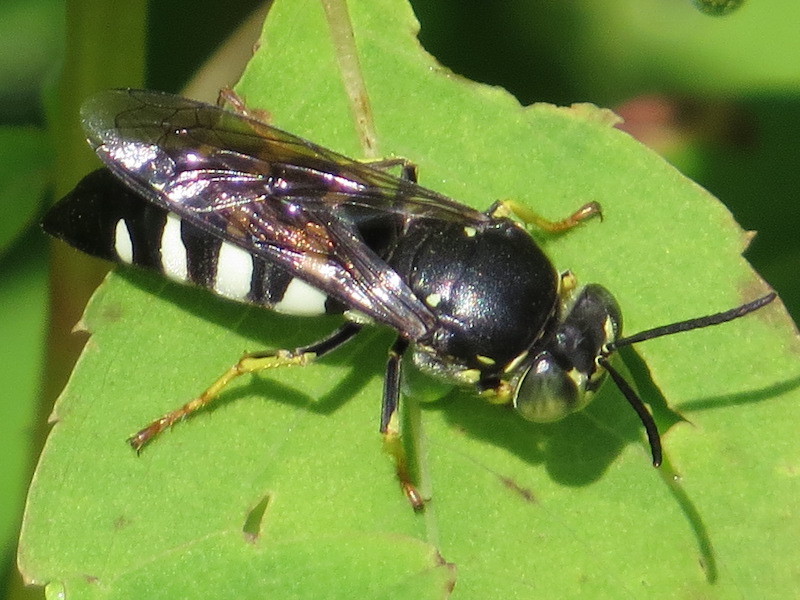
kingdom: Animalia
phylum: Arthropoda
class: Insecta
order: Hymenoptera
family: Crabronidae
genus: Bicyrtes
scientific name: Bicyrtes quadrifasciatus
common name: Four-banded stink bug hunter wasp
